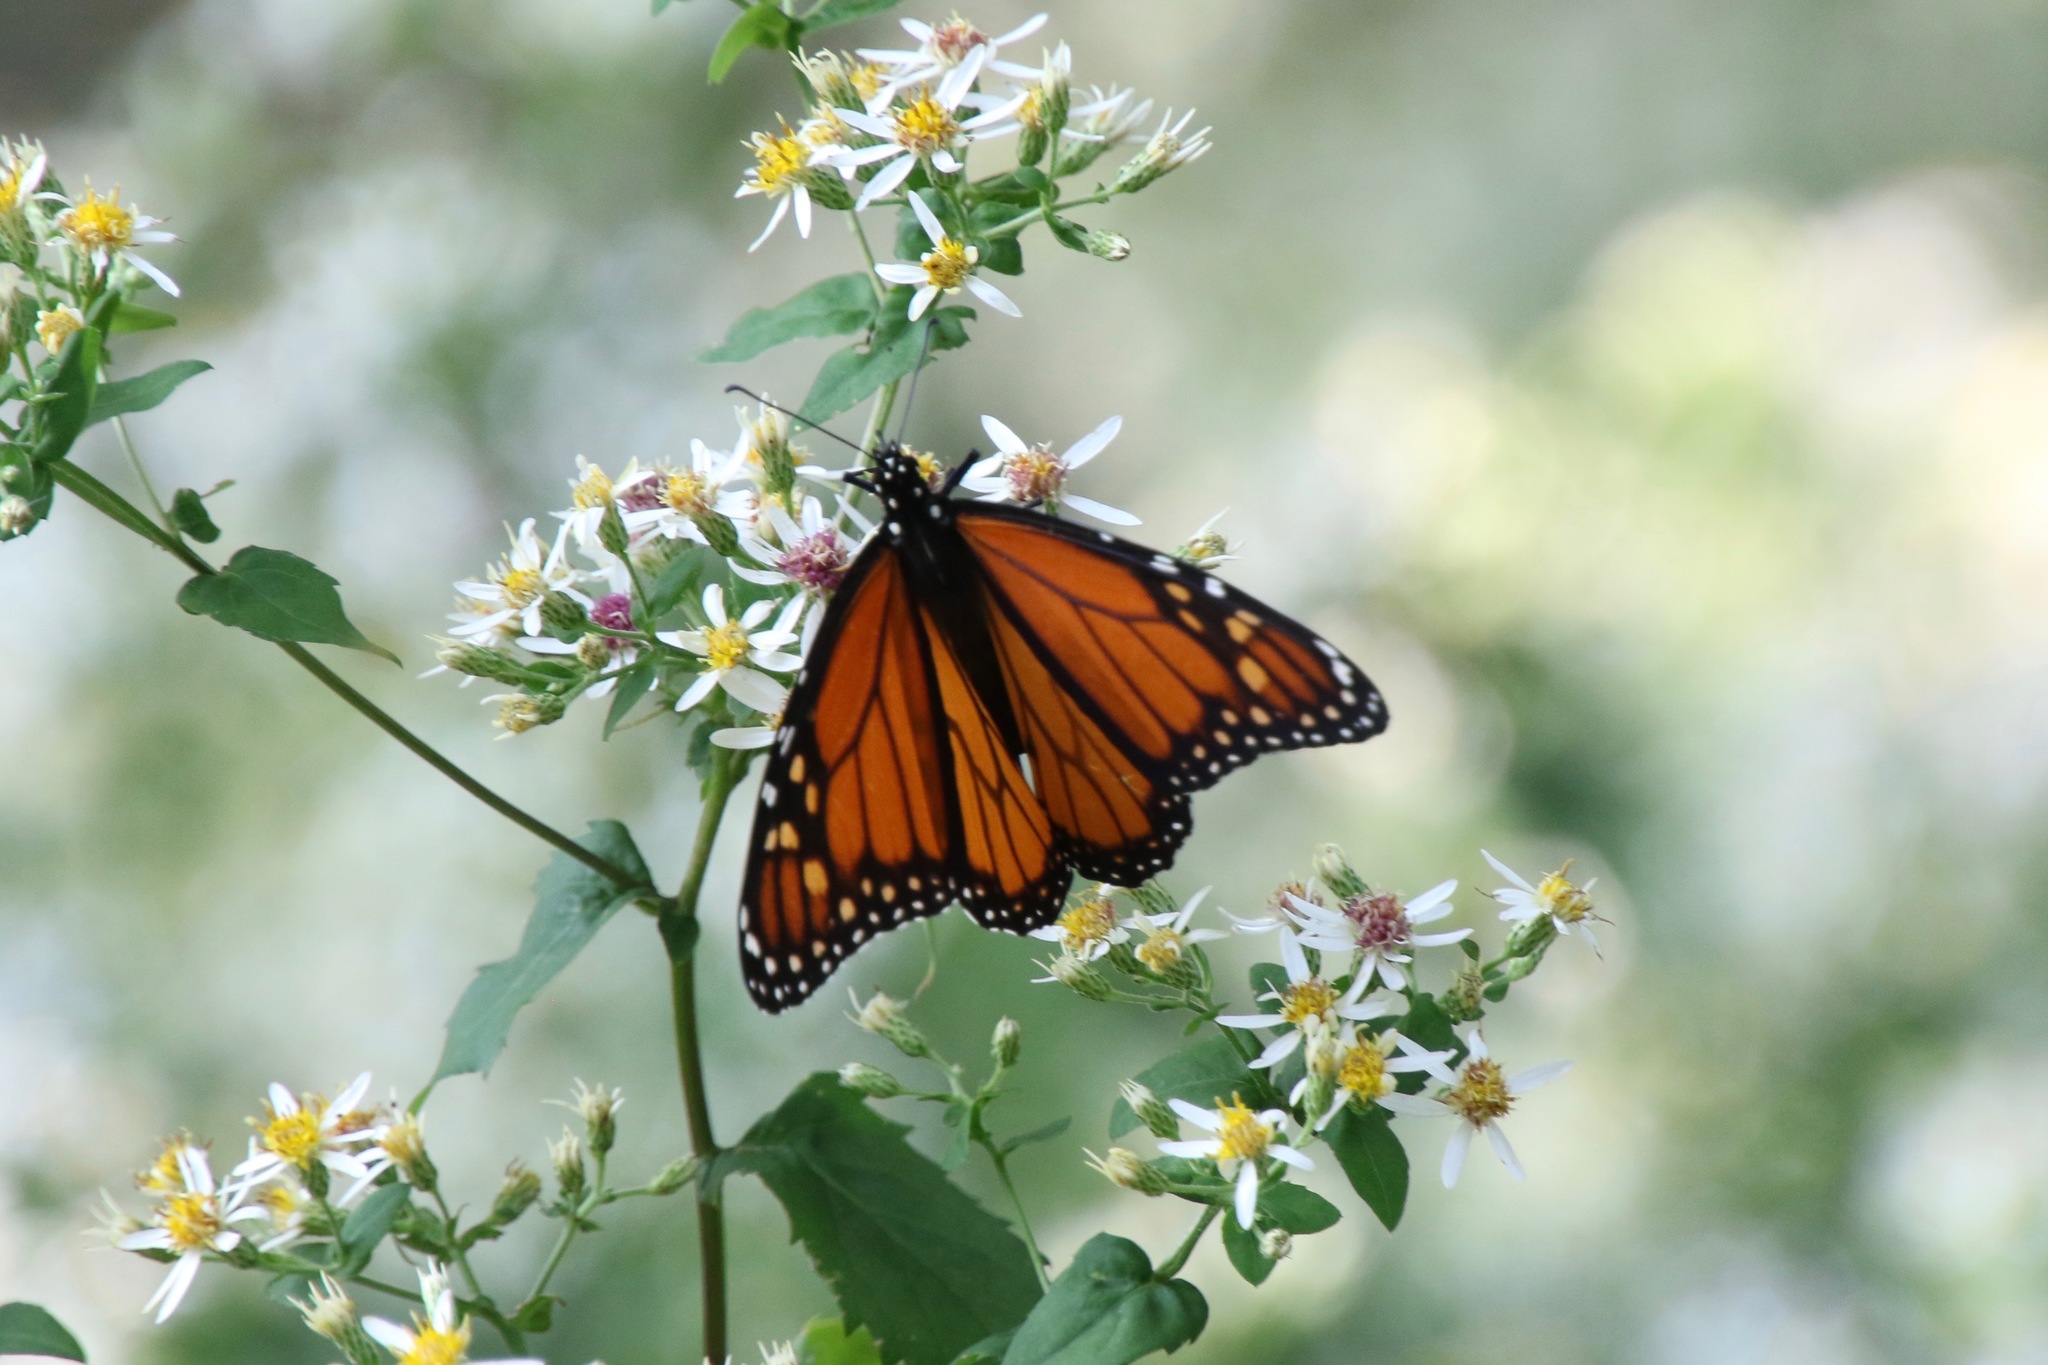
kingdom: Animalia
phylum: Arthropoda
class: Insecta
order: Lepidoptera
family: Nymphalidae
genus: Danaus
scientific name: Danaus plexippus
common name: Monarch
